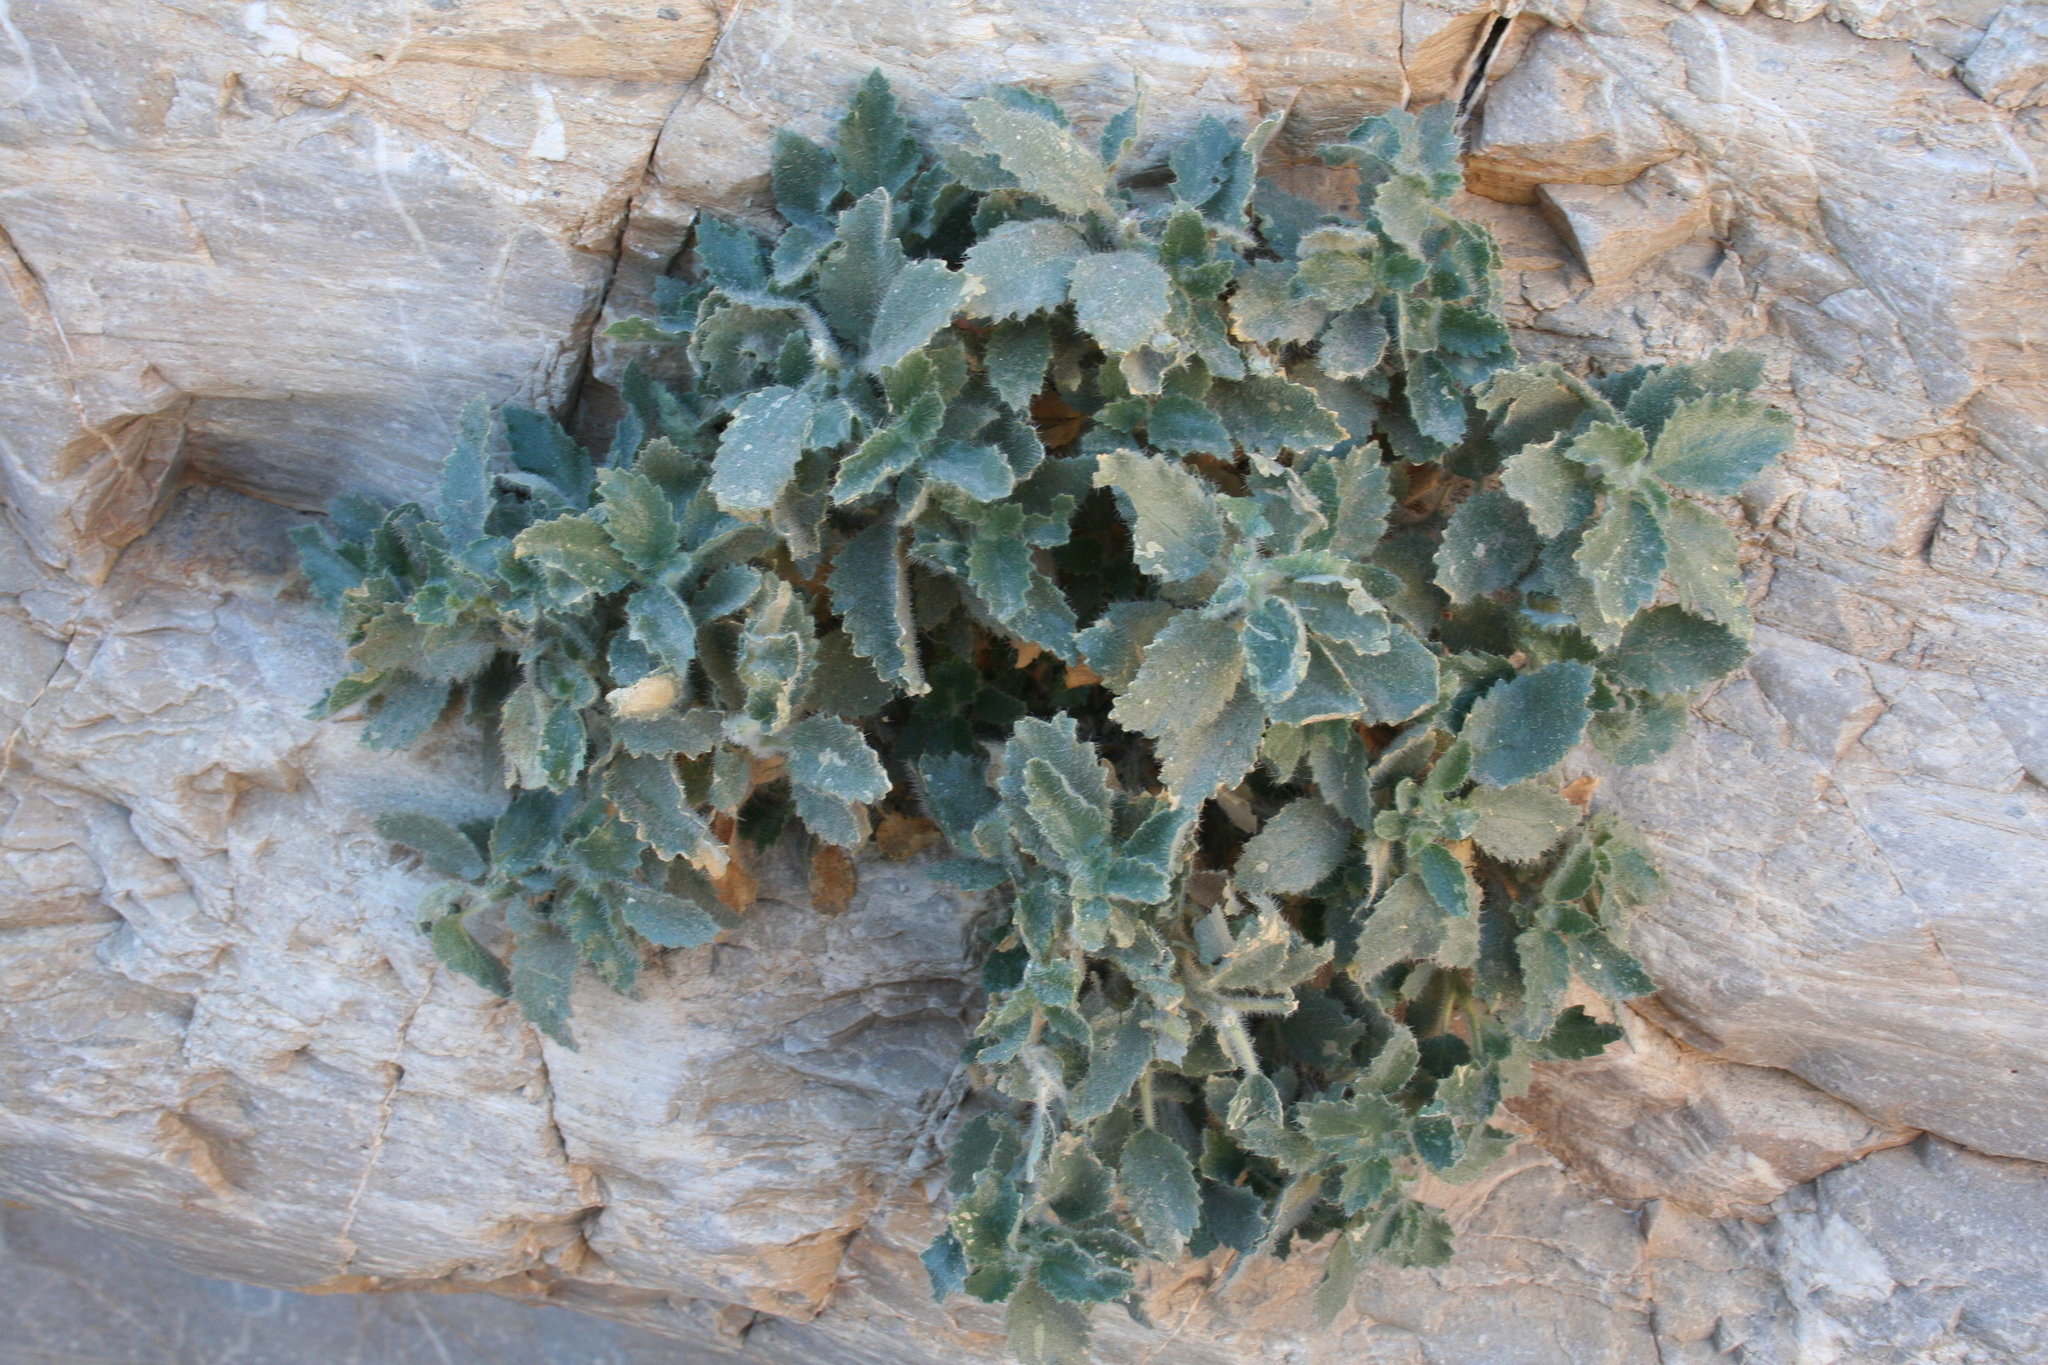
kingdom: Plantae
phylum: Tracheophyta
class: Magnoliopsida
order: Cornales
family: Loasaceae
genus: Eucnide
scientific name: Eucnide urens
